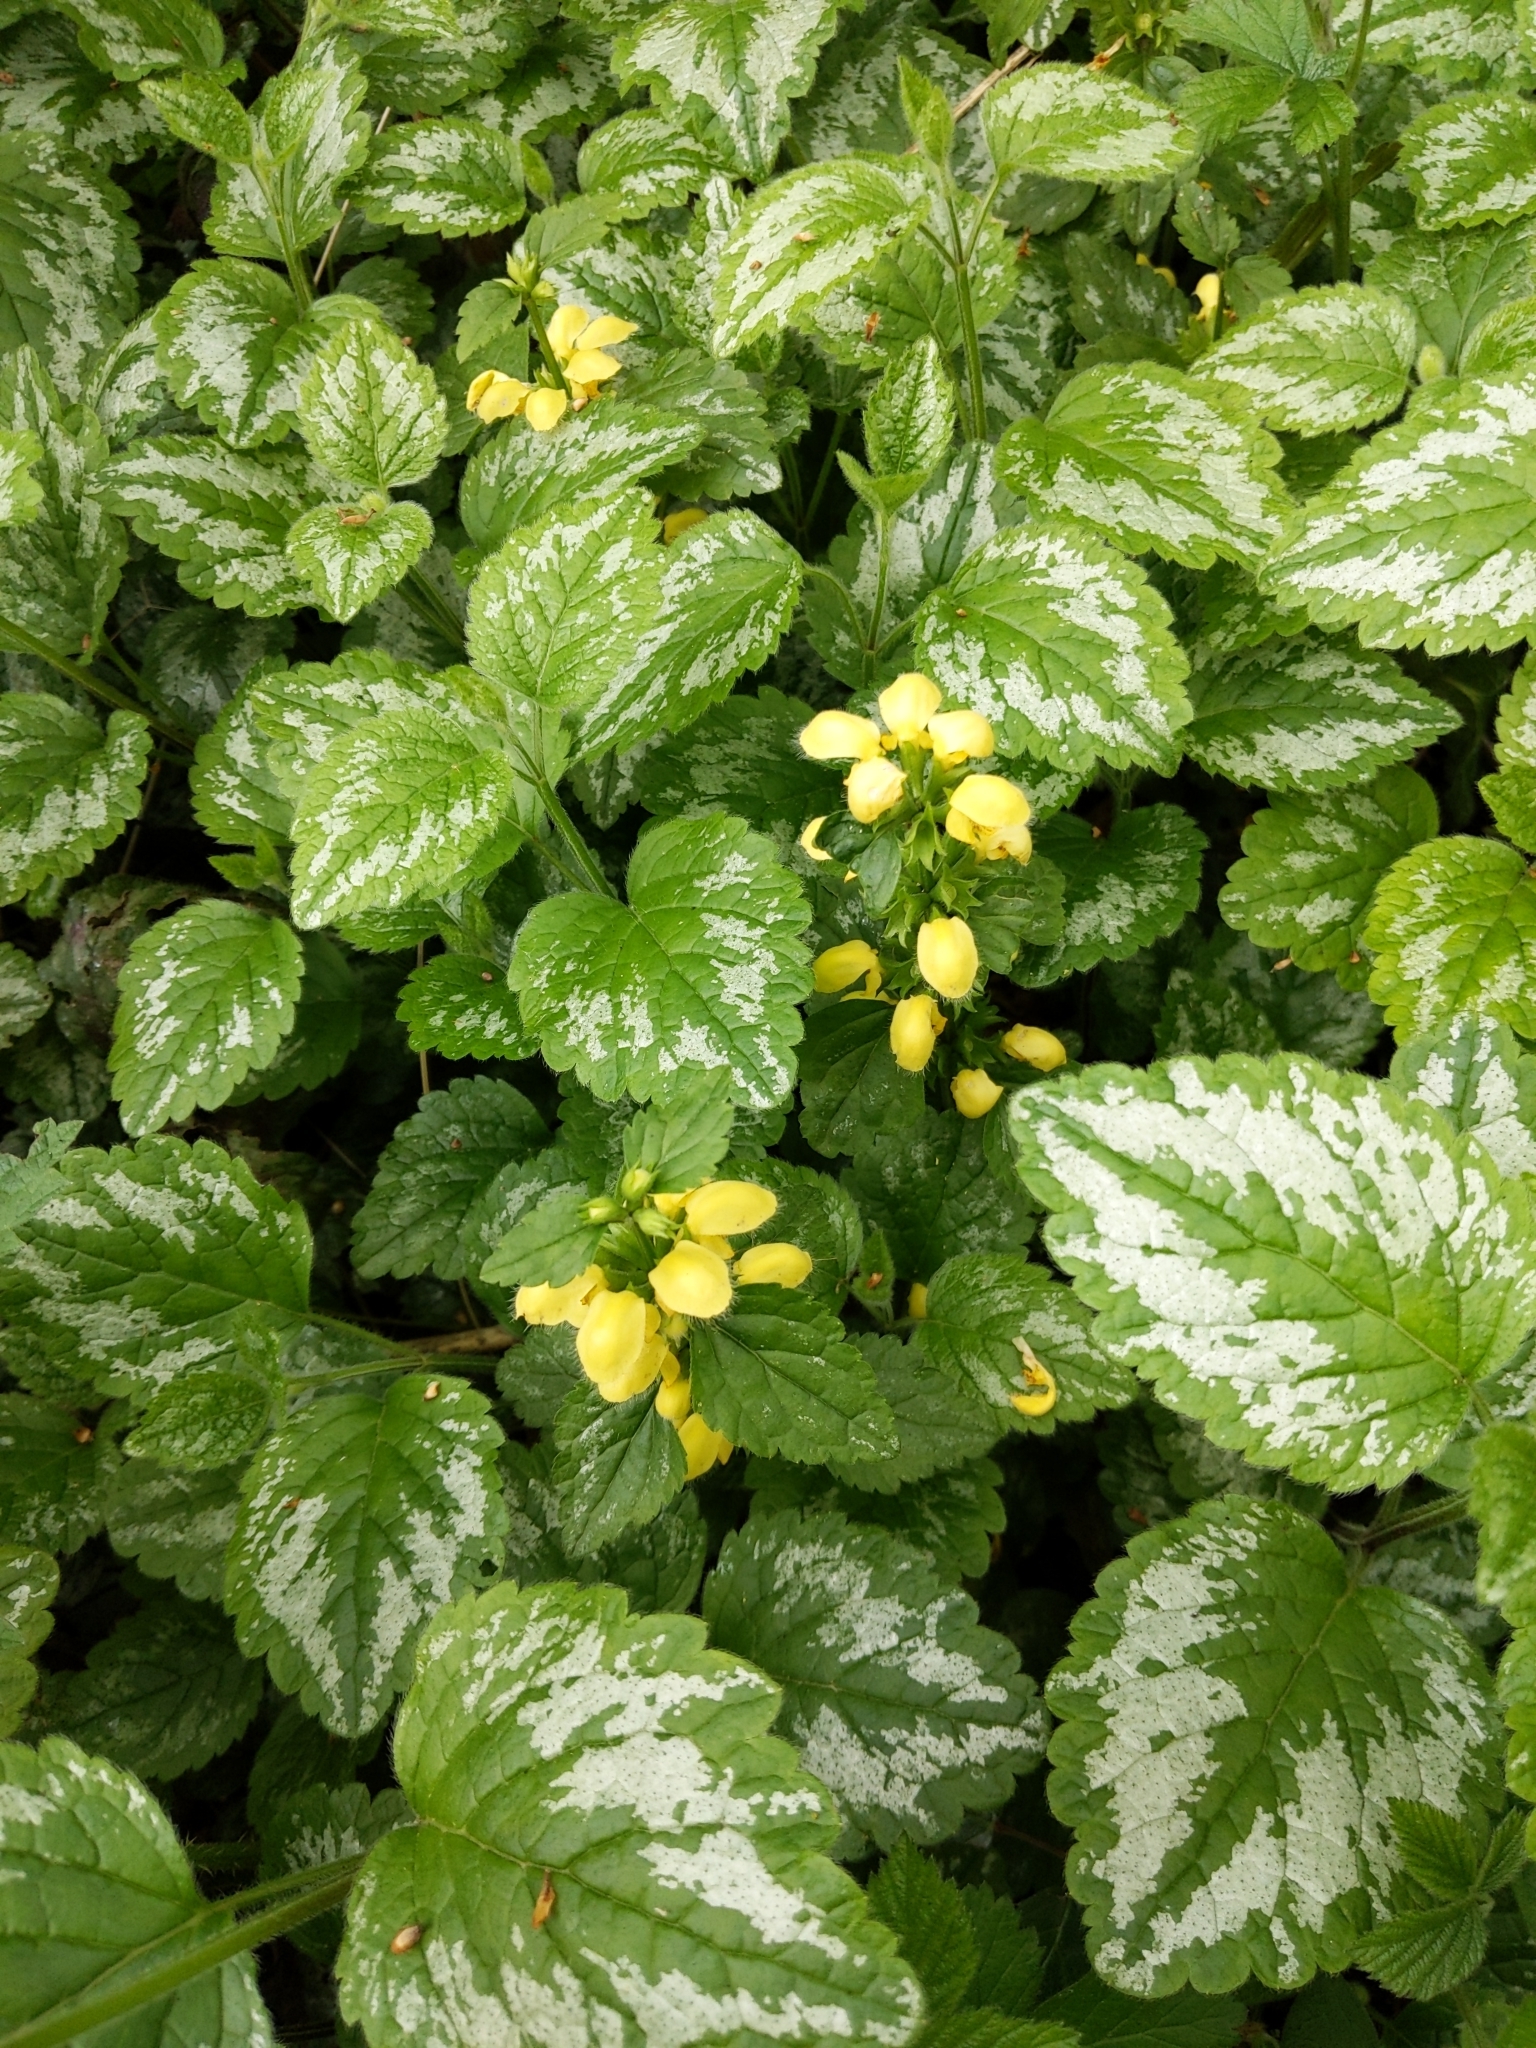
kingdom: Plantae
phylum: Tracheophyta
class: Magnoliopsida
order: Lamiales
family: Lamiaceae
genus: Lamium
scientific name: Lamium galeobdolon
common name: Yellow archangel
